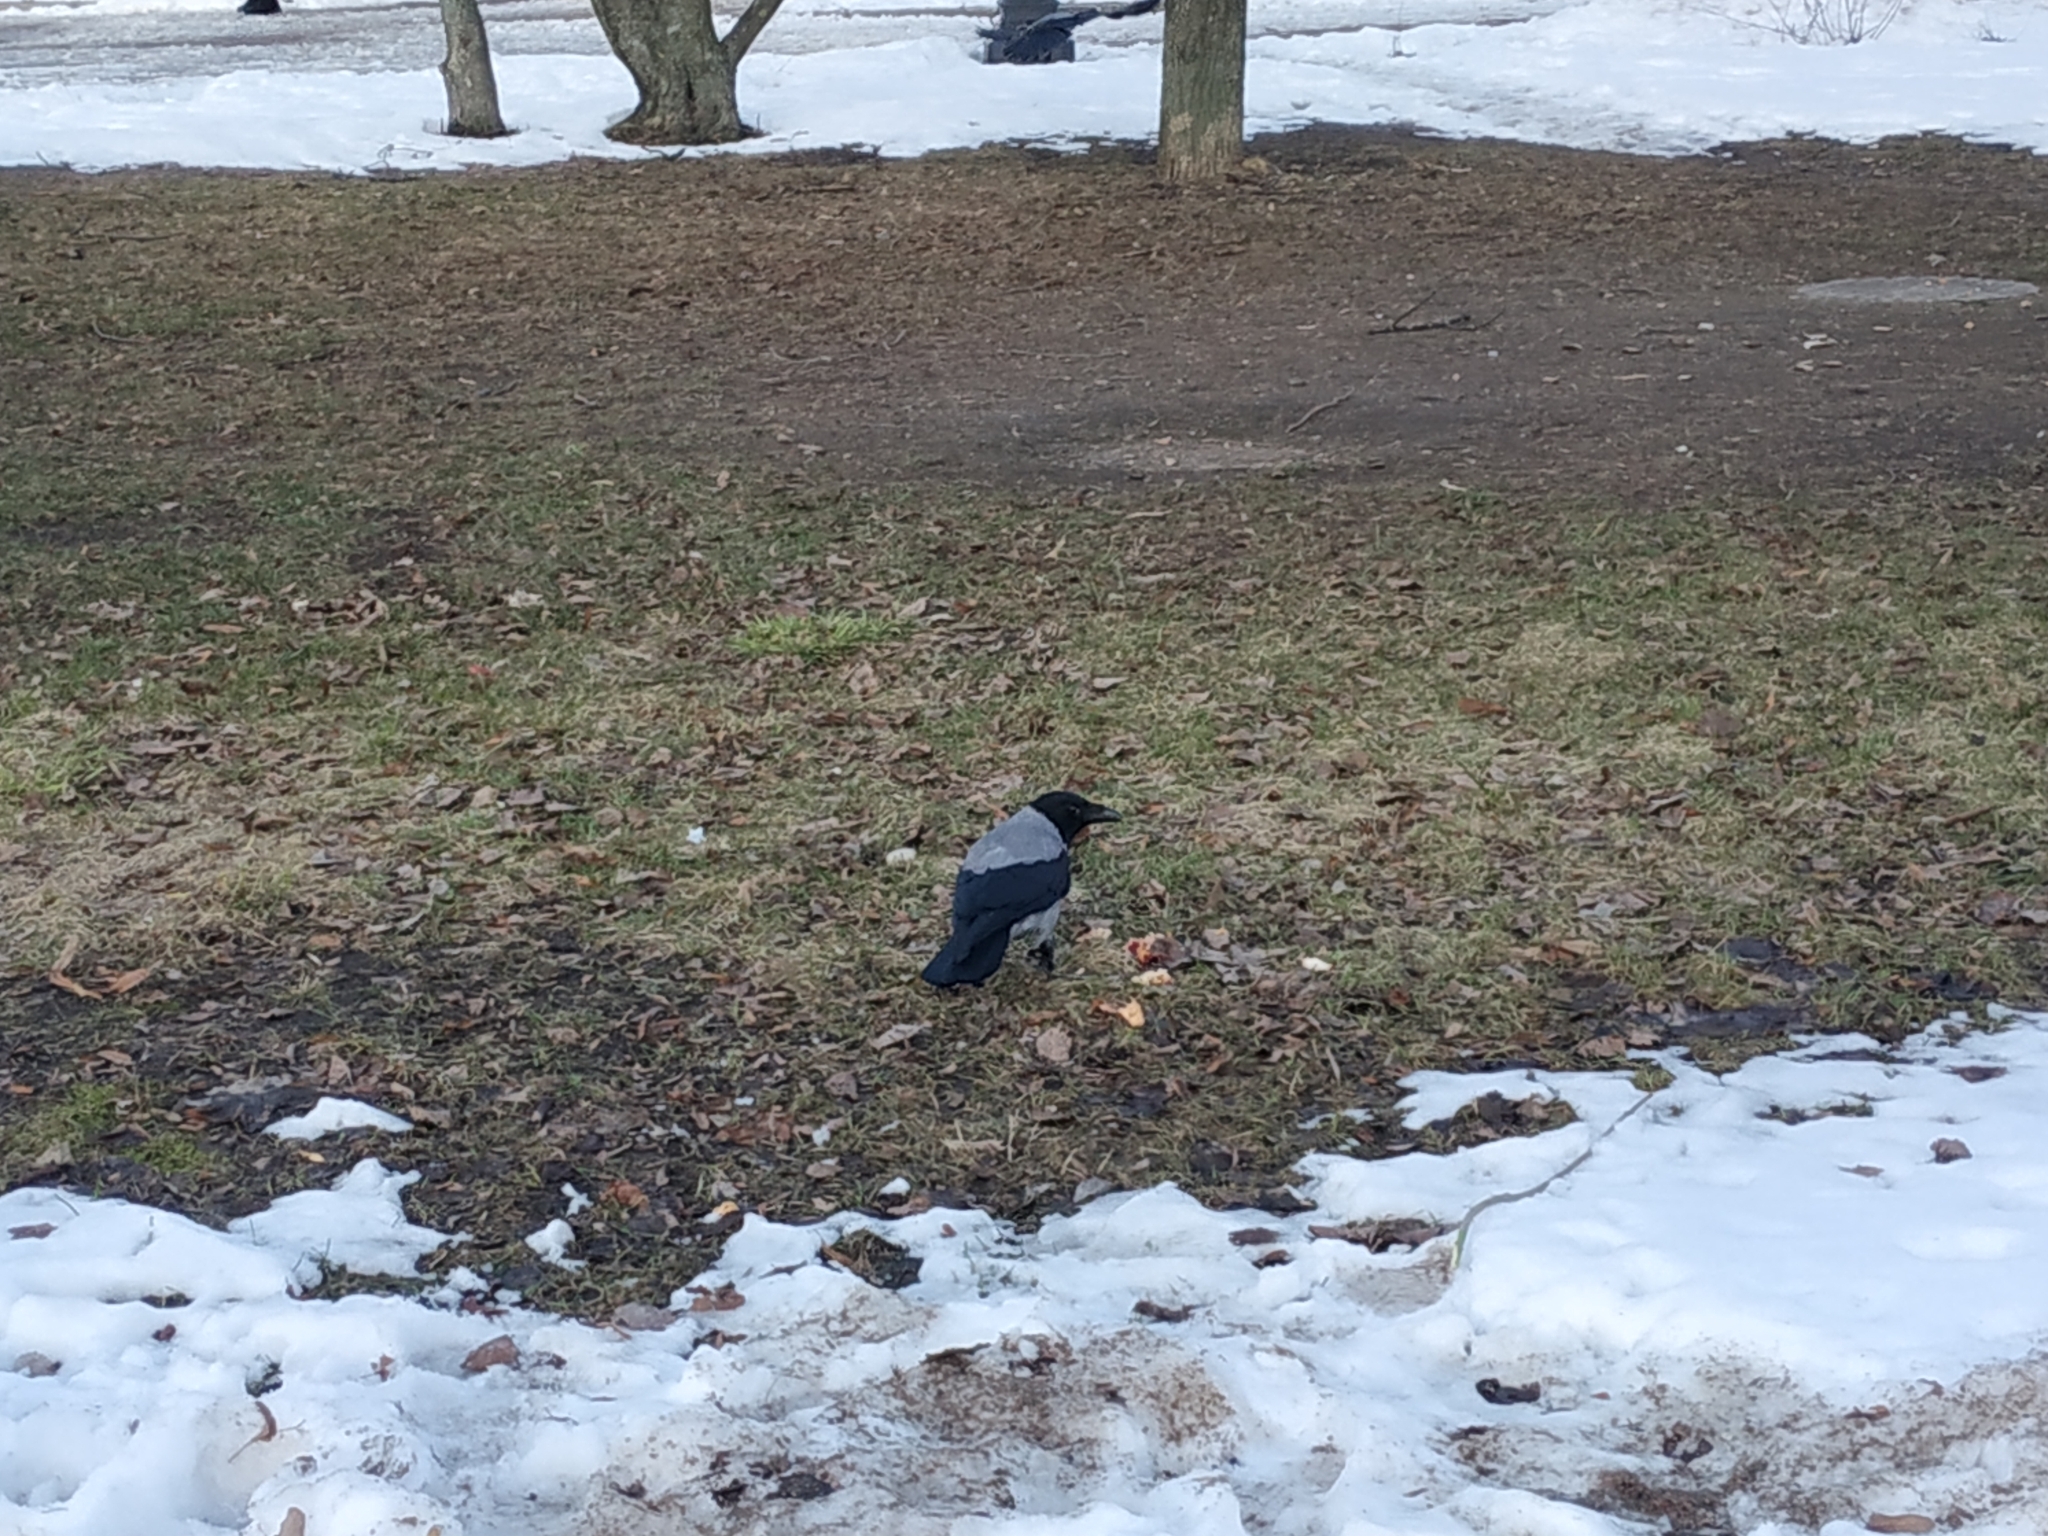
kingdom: Animalia
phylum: Chordata
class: Aves
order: Passeriformes
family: Corvidae
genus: Corvus
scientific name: Corvus cornix
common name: Hooded crow
